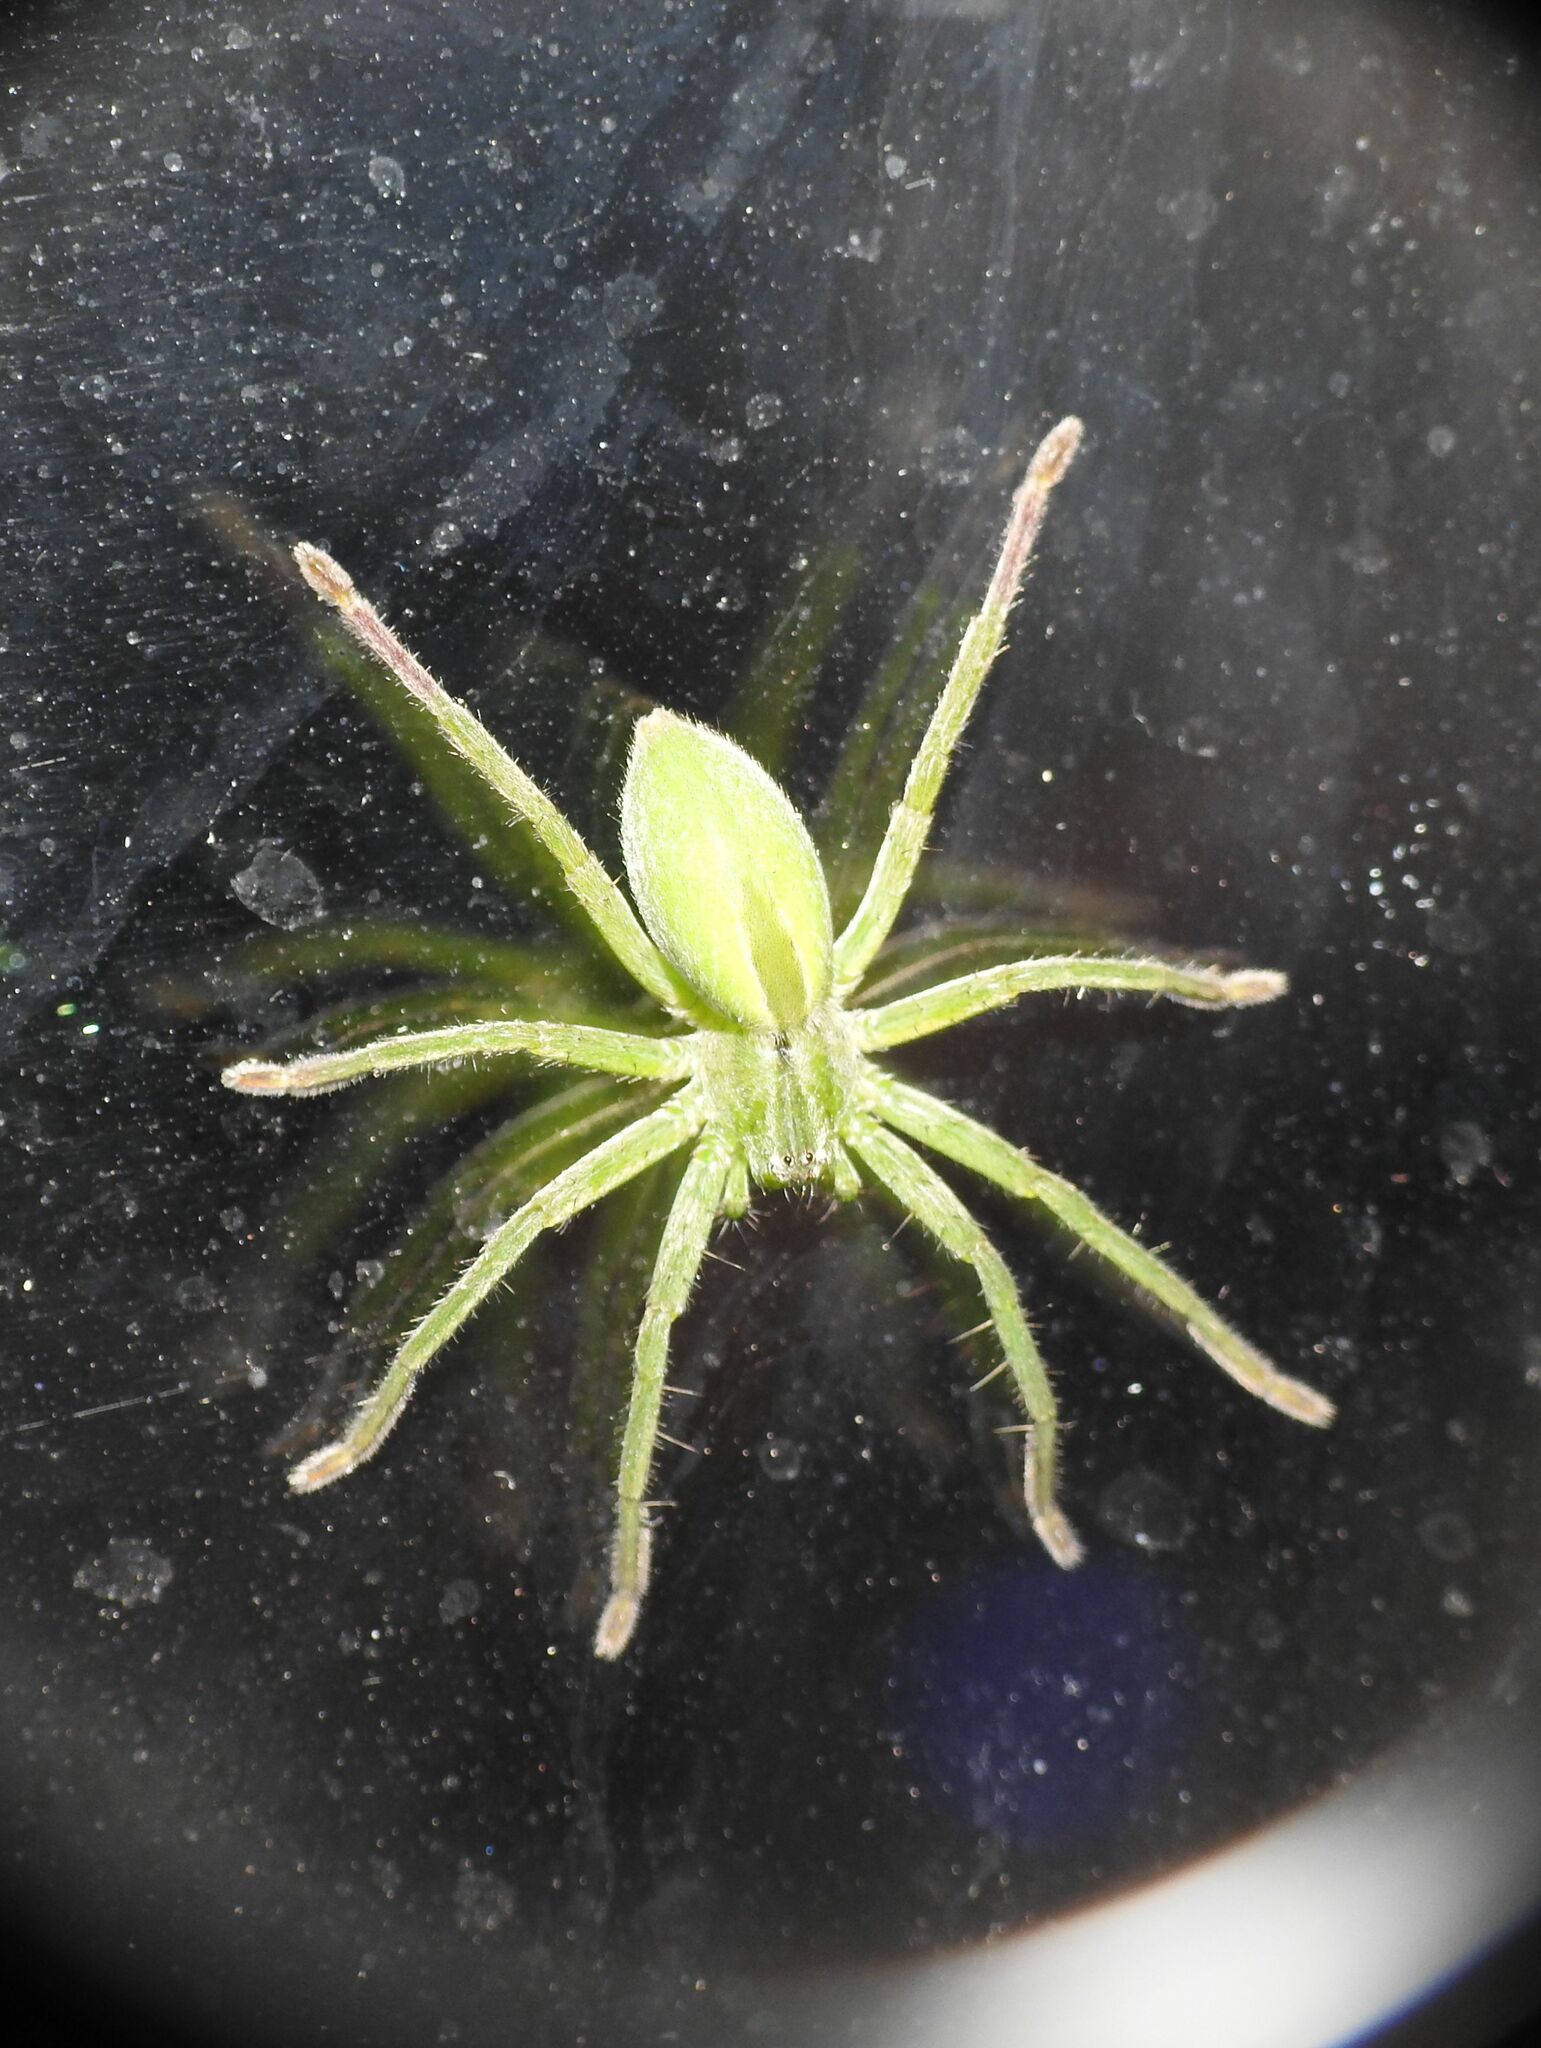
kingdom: Animalia
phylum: Arthropoda
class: Arachnida
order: Araneae
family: Sparassidae
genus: Micrommata
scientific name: Micrommata ligurina
